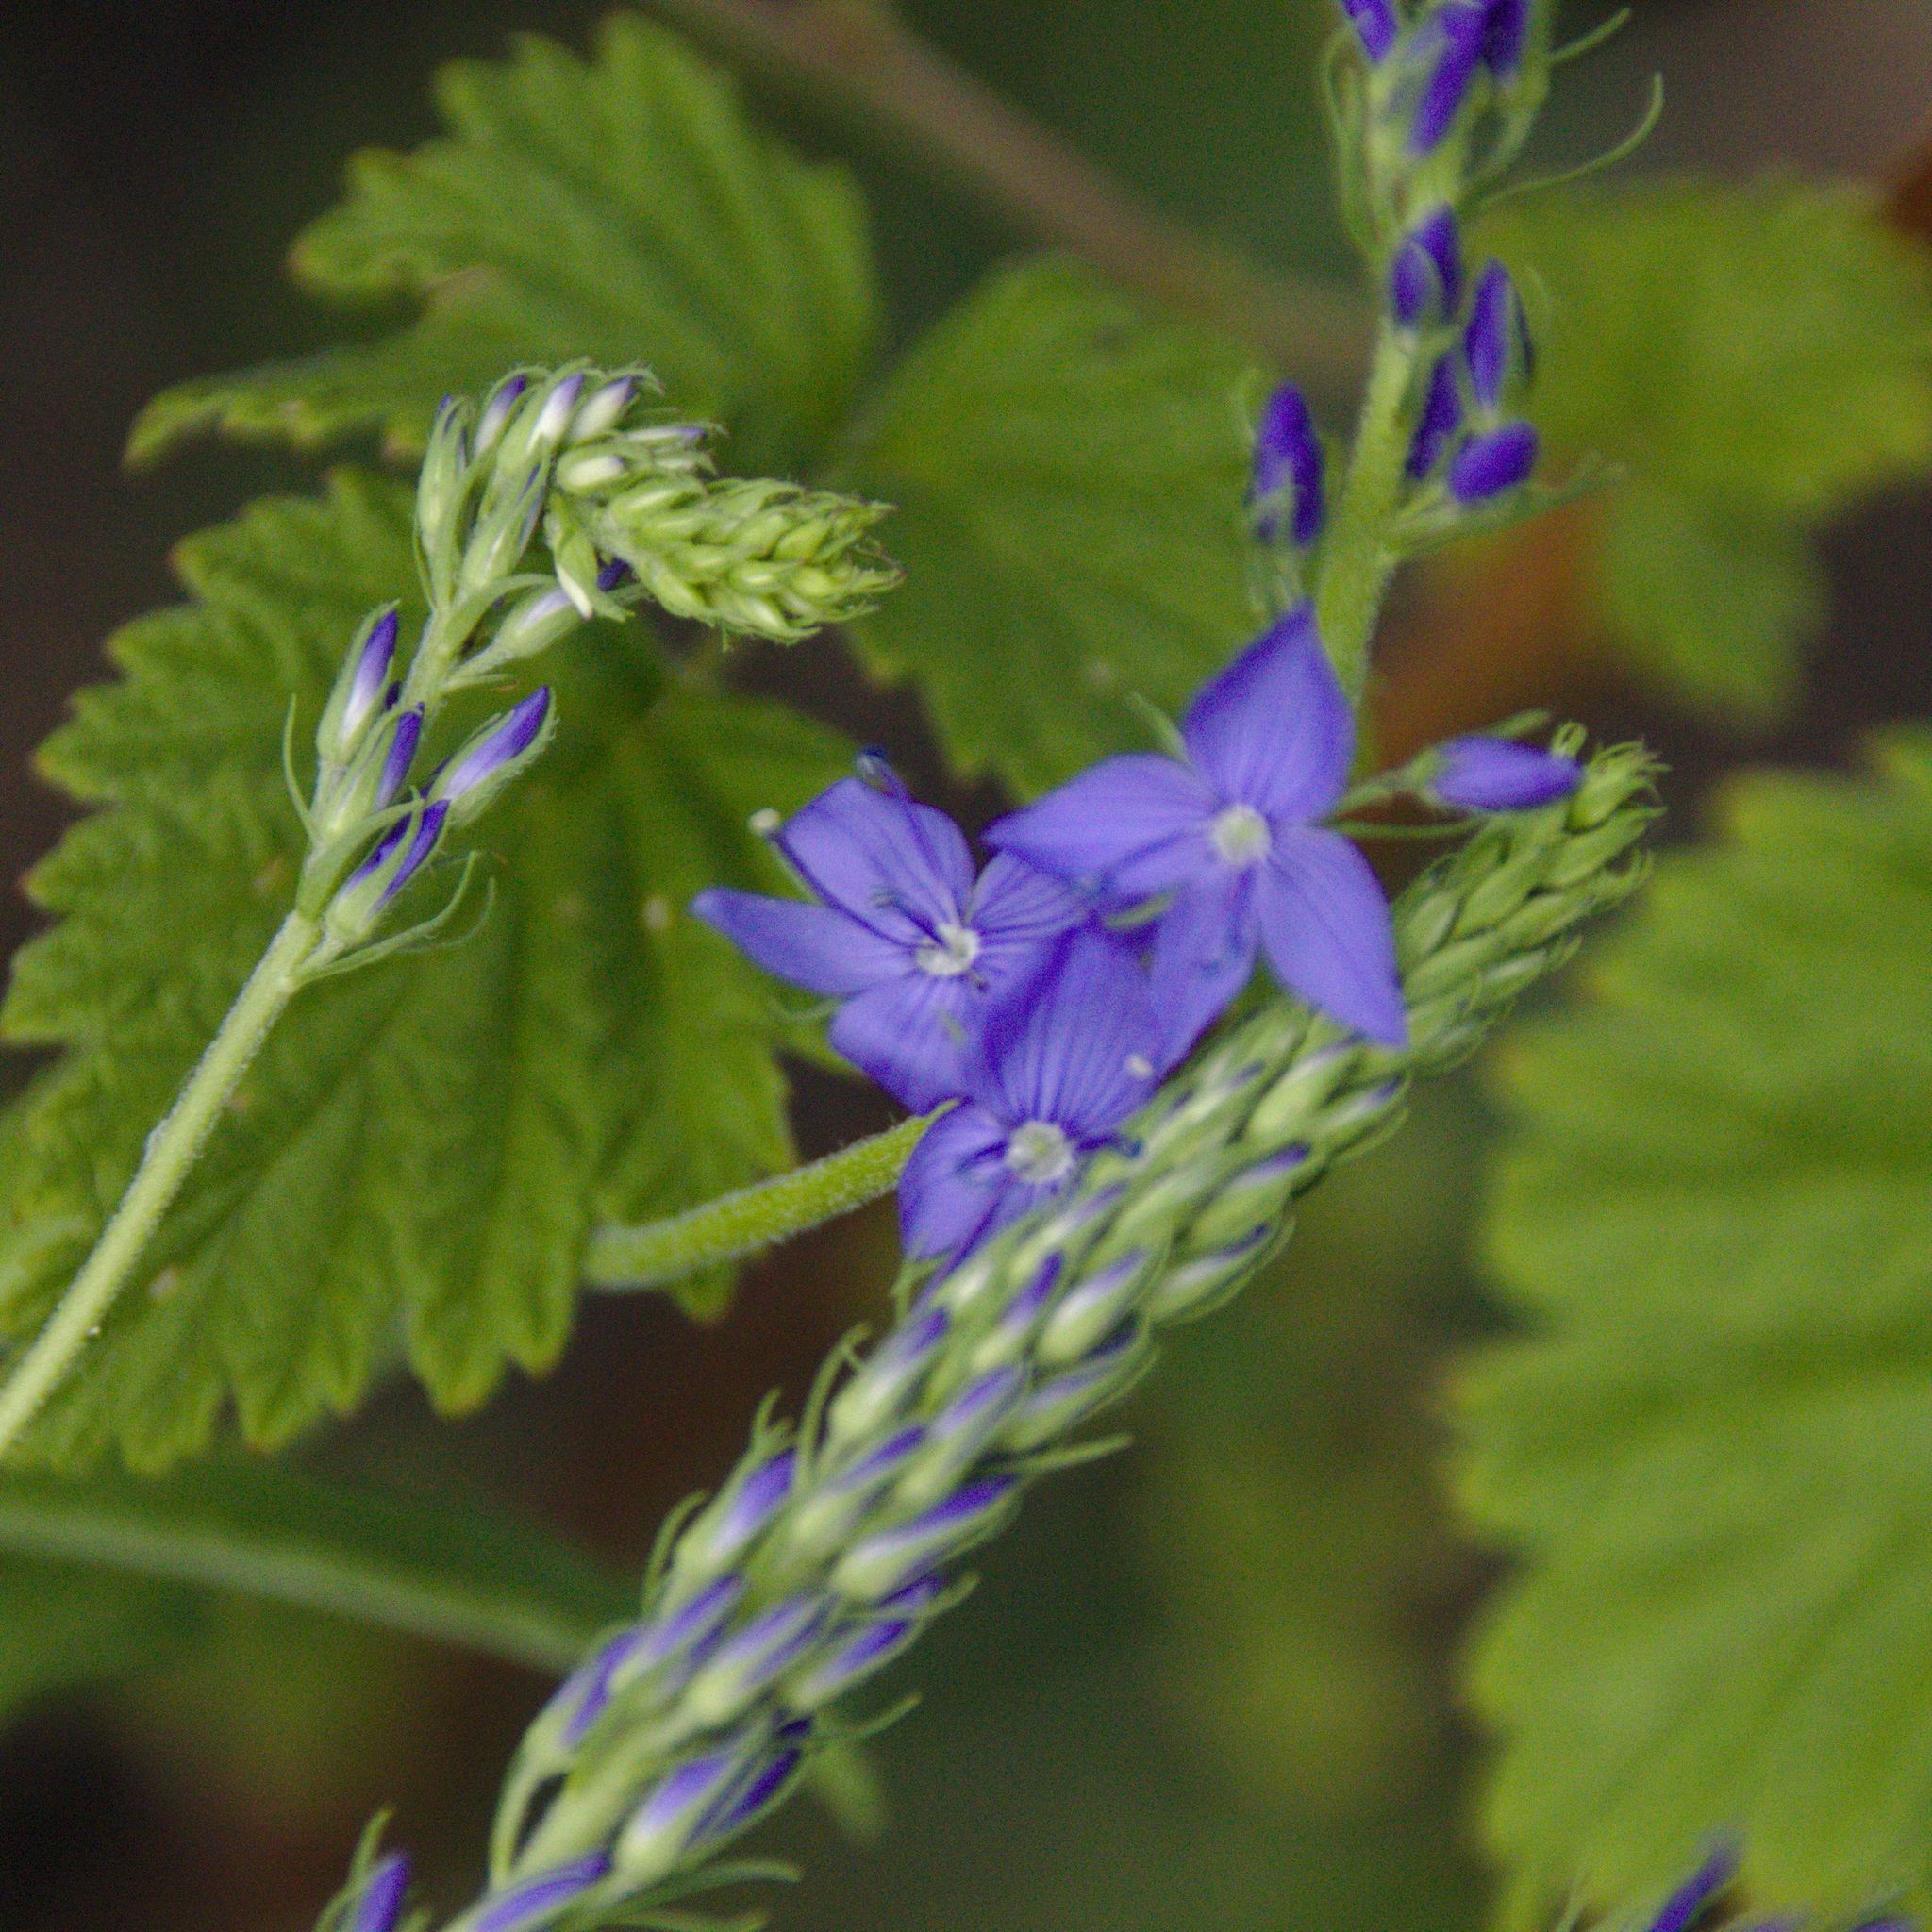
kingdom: Plantae
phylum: Tracheophyta
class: Magnoliopsida
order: Lamiales
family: Plantaginaceae
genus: Veronica
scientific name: Veronica teucrium
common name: Large speedwell
